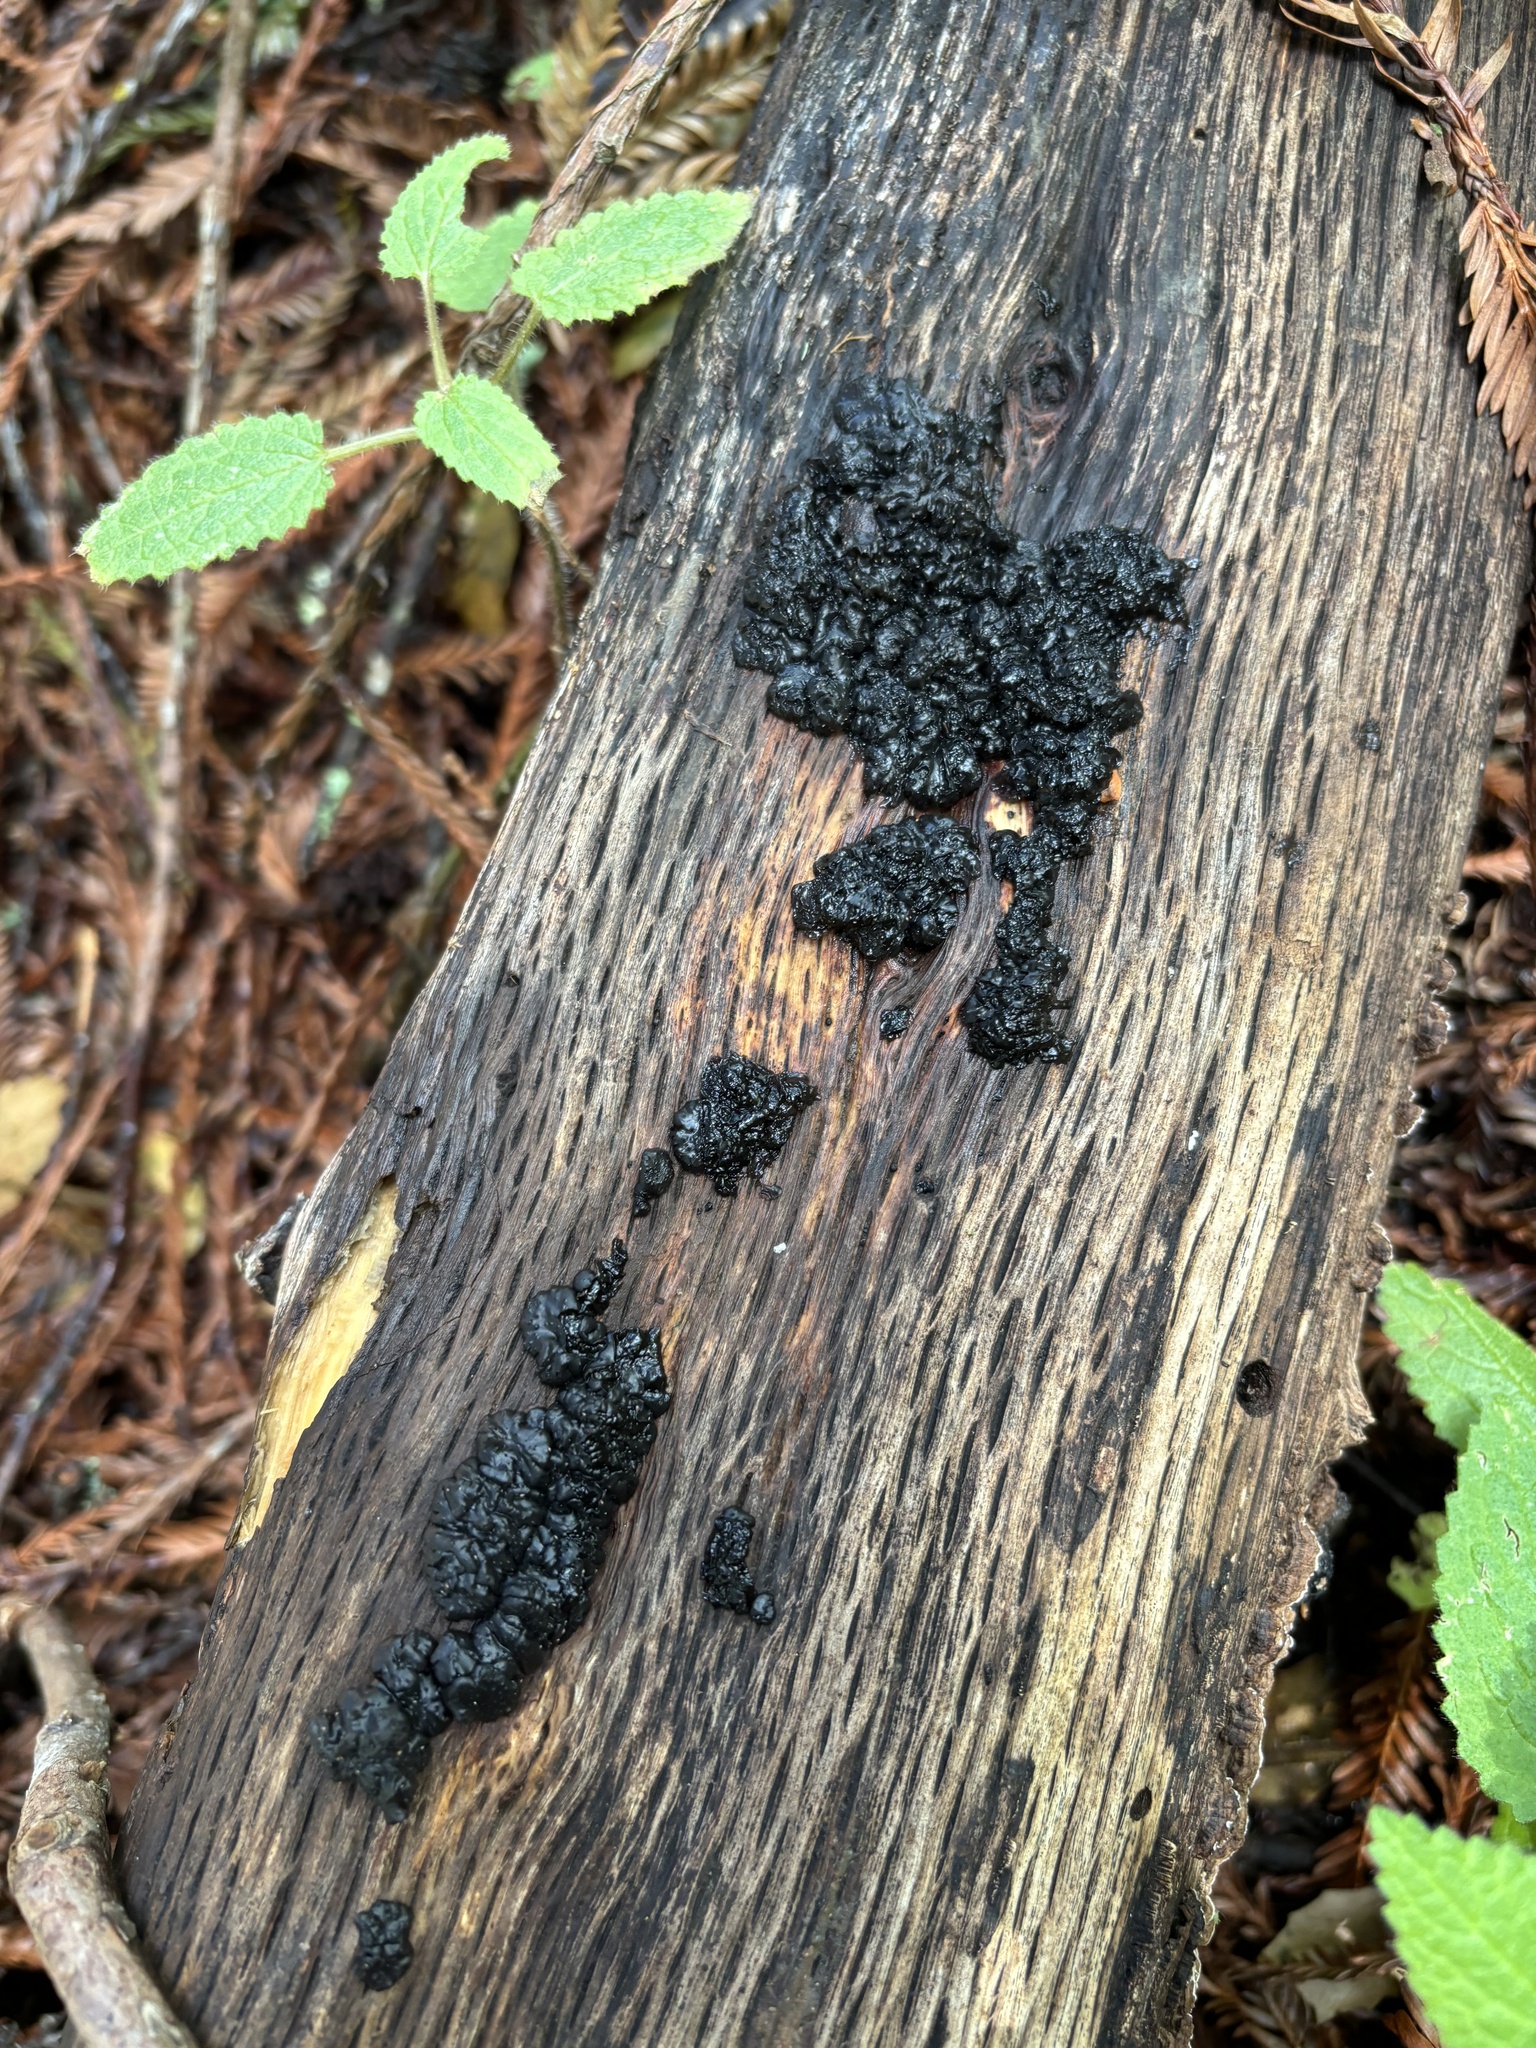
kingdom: Fungi
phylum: Basidiomycota
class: Agaricomycetes
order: Auriculariales
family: Auriculariaceae
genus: Exidia
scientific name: Exidia glandulosa
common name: Witches' butter
